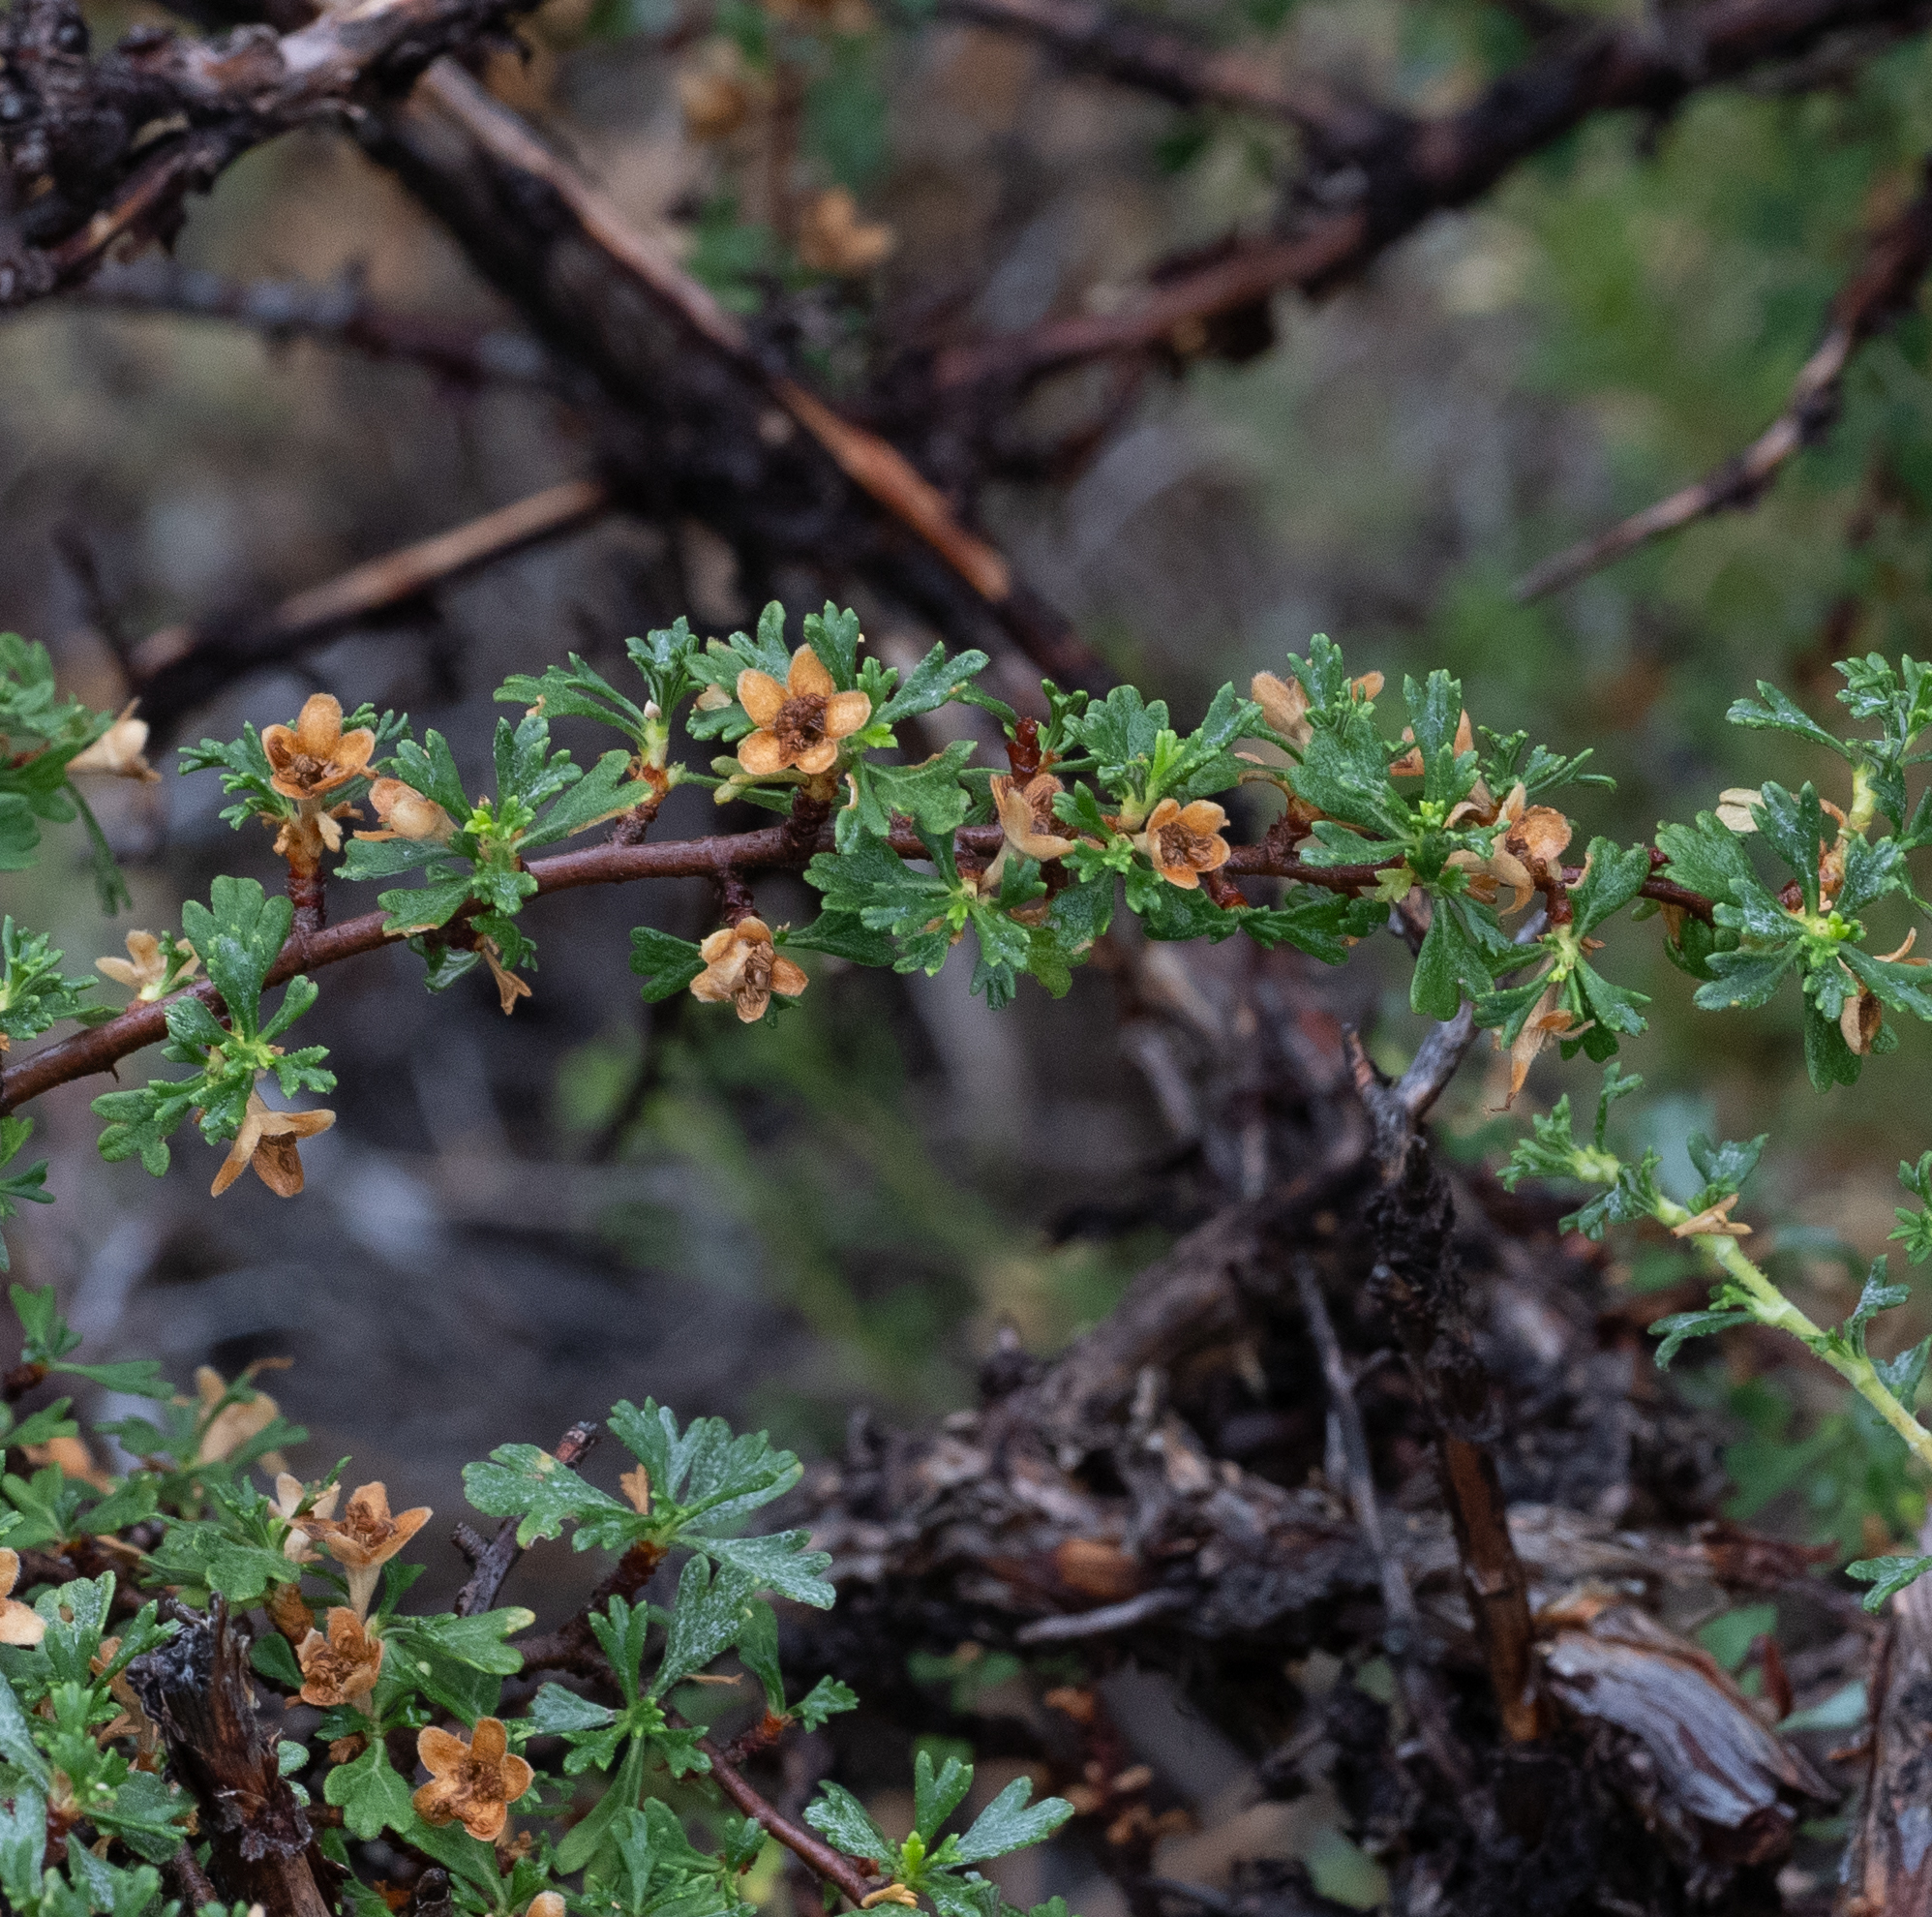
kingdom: Plantae
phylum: Tracheophyta
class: Magnoliopsida
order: Rosales
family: Rosaceae
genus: Purshia
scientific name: Purshia tridentata
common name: Antelope bitterbrush
